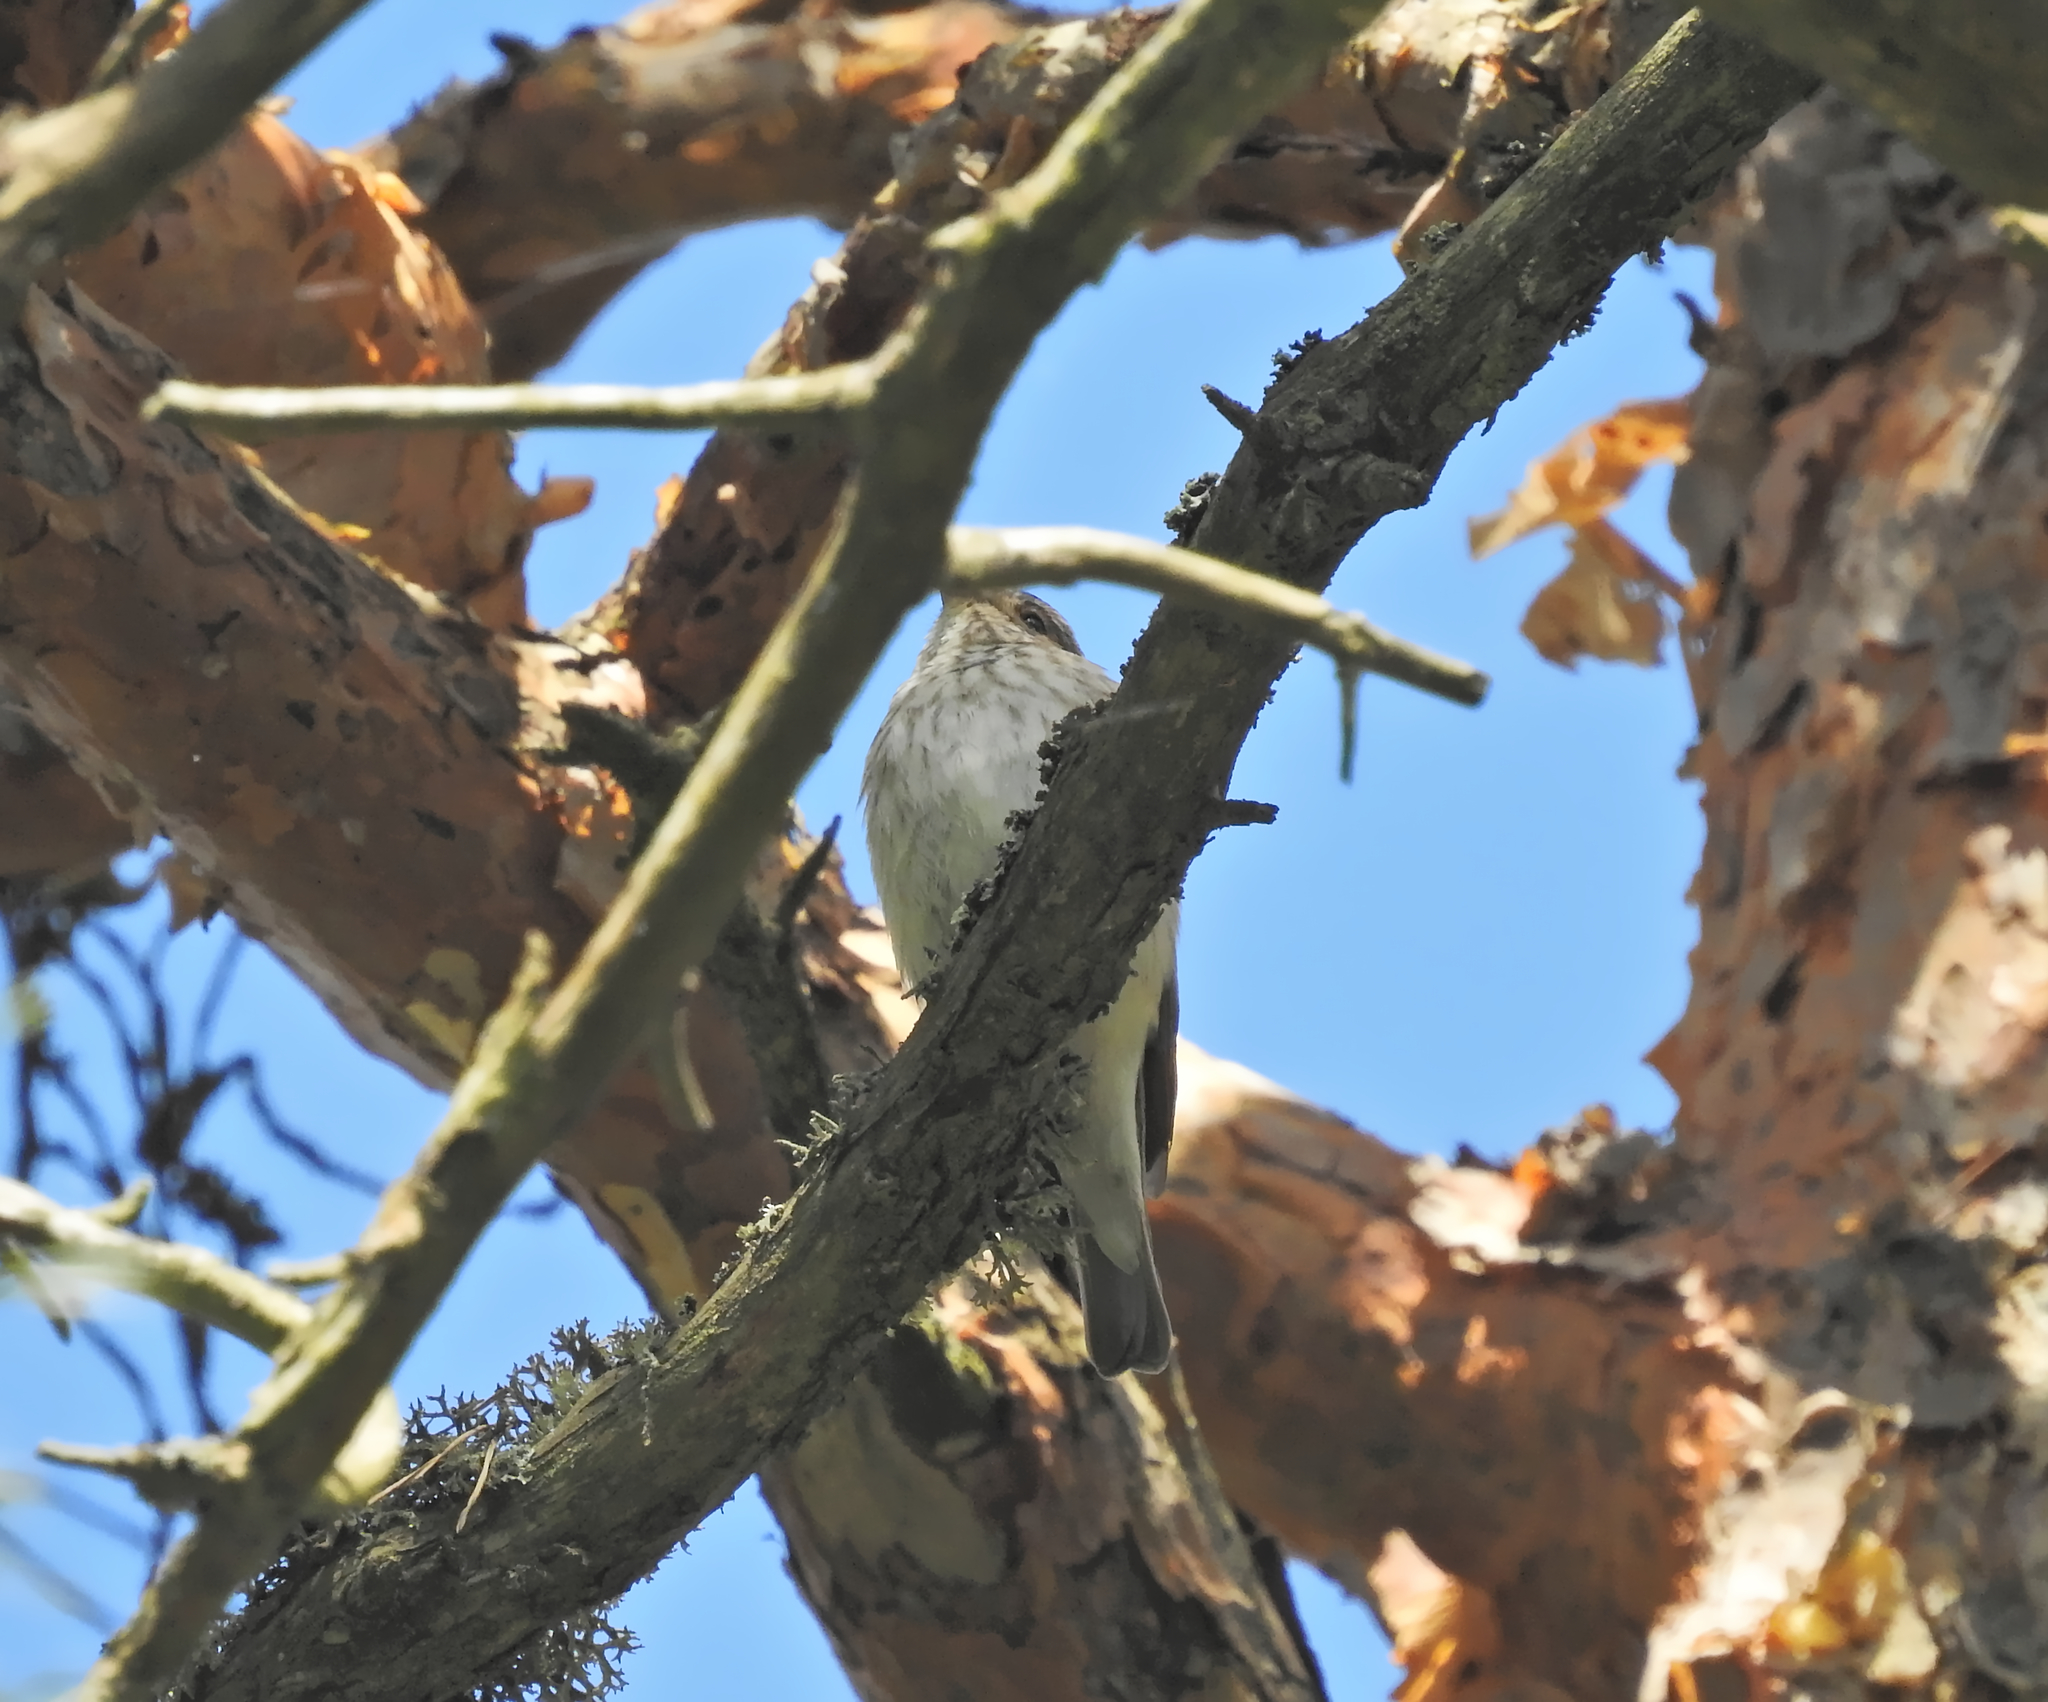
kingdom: Animalia
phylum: Chordata
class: Aves
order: Passeriformes
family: Muscicapidae
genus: Muscicapa
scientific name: Muscicapa striata
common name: Spotted flycatcher
